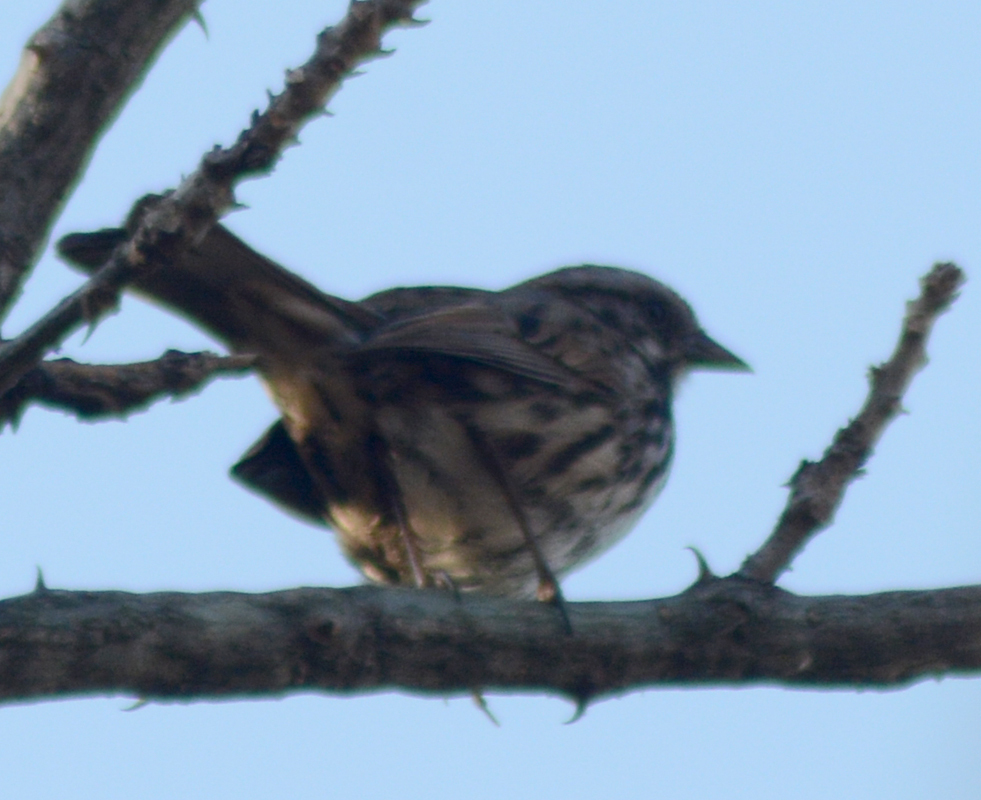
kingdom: Animalia
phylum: Chordata
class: Aves
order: Passeriformes
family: Passerellidae
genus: Melospiza
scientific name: Melospiza melodia
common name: Song sparrow
